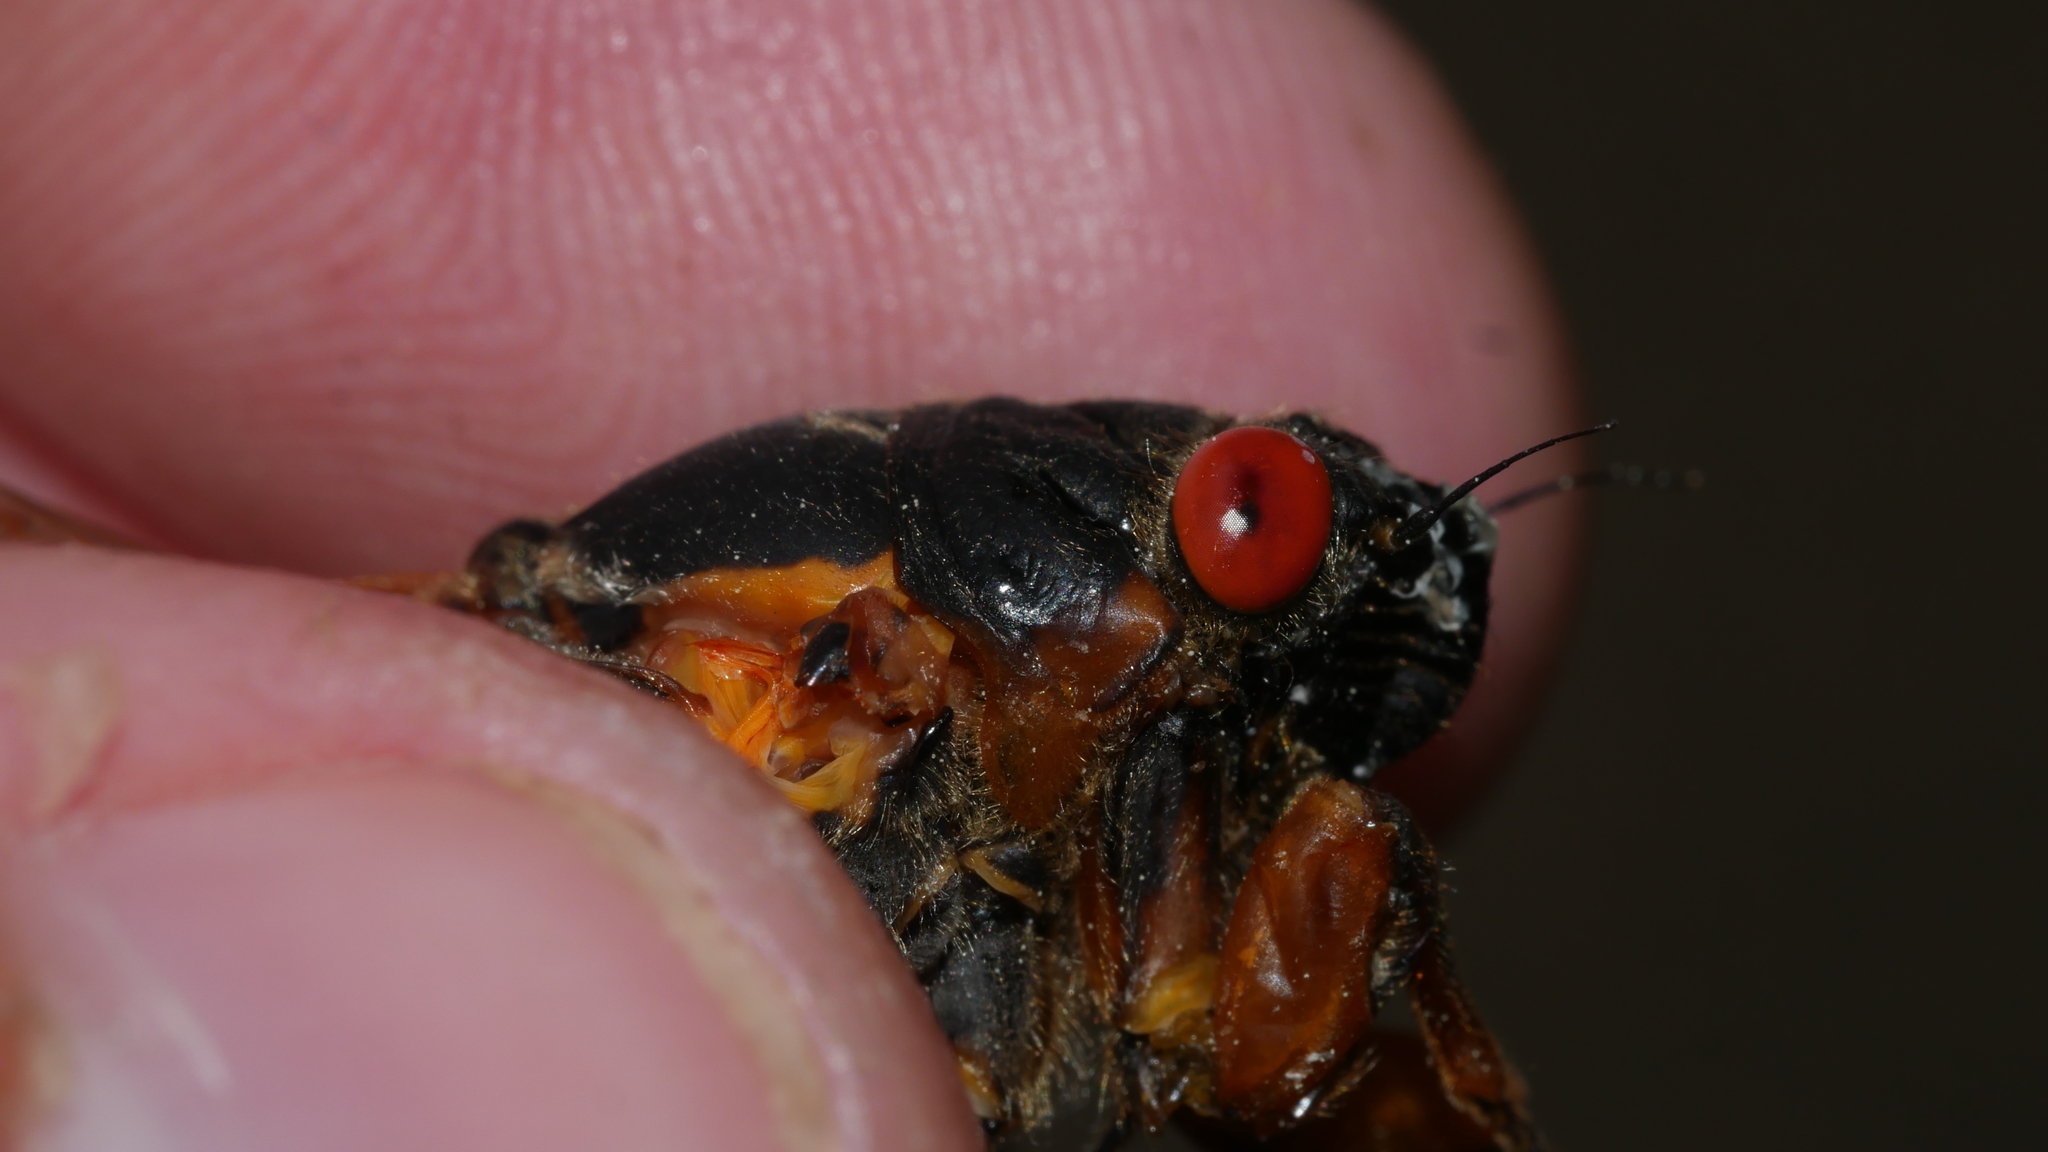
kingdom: Animalia
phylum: Arthropoda
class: Insecta
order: Hemiptera
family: Cicadidae
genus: Magicicada
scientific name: Magicicada septendecim
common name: Periodical cicada
